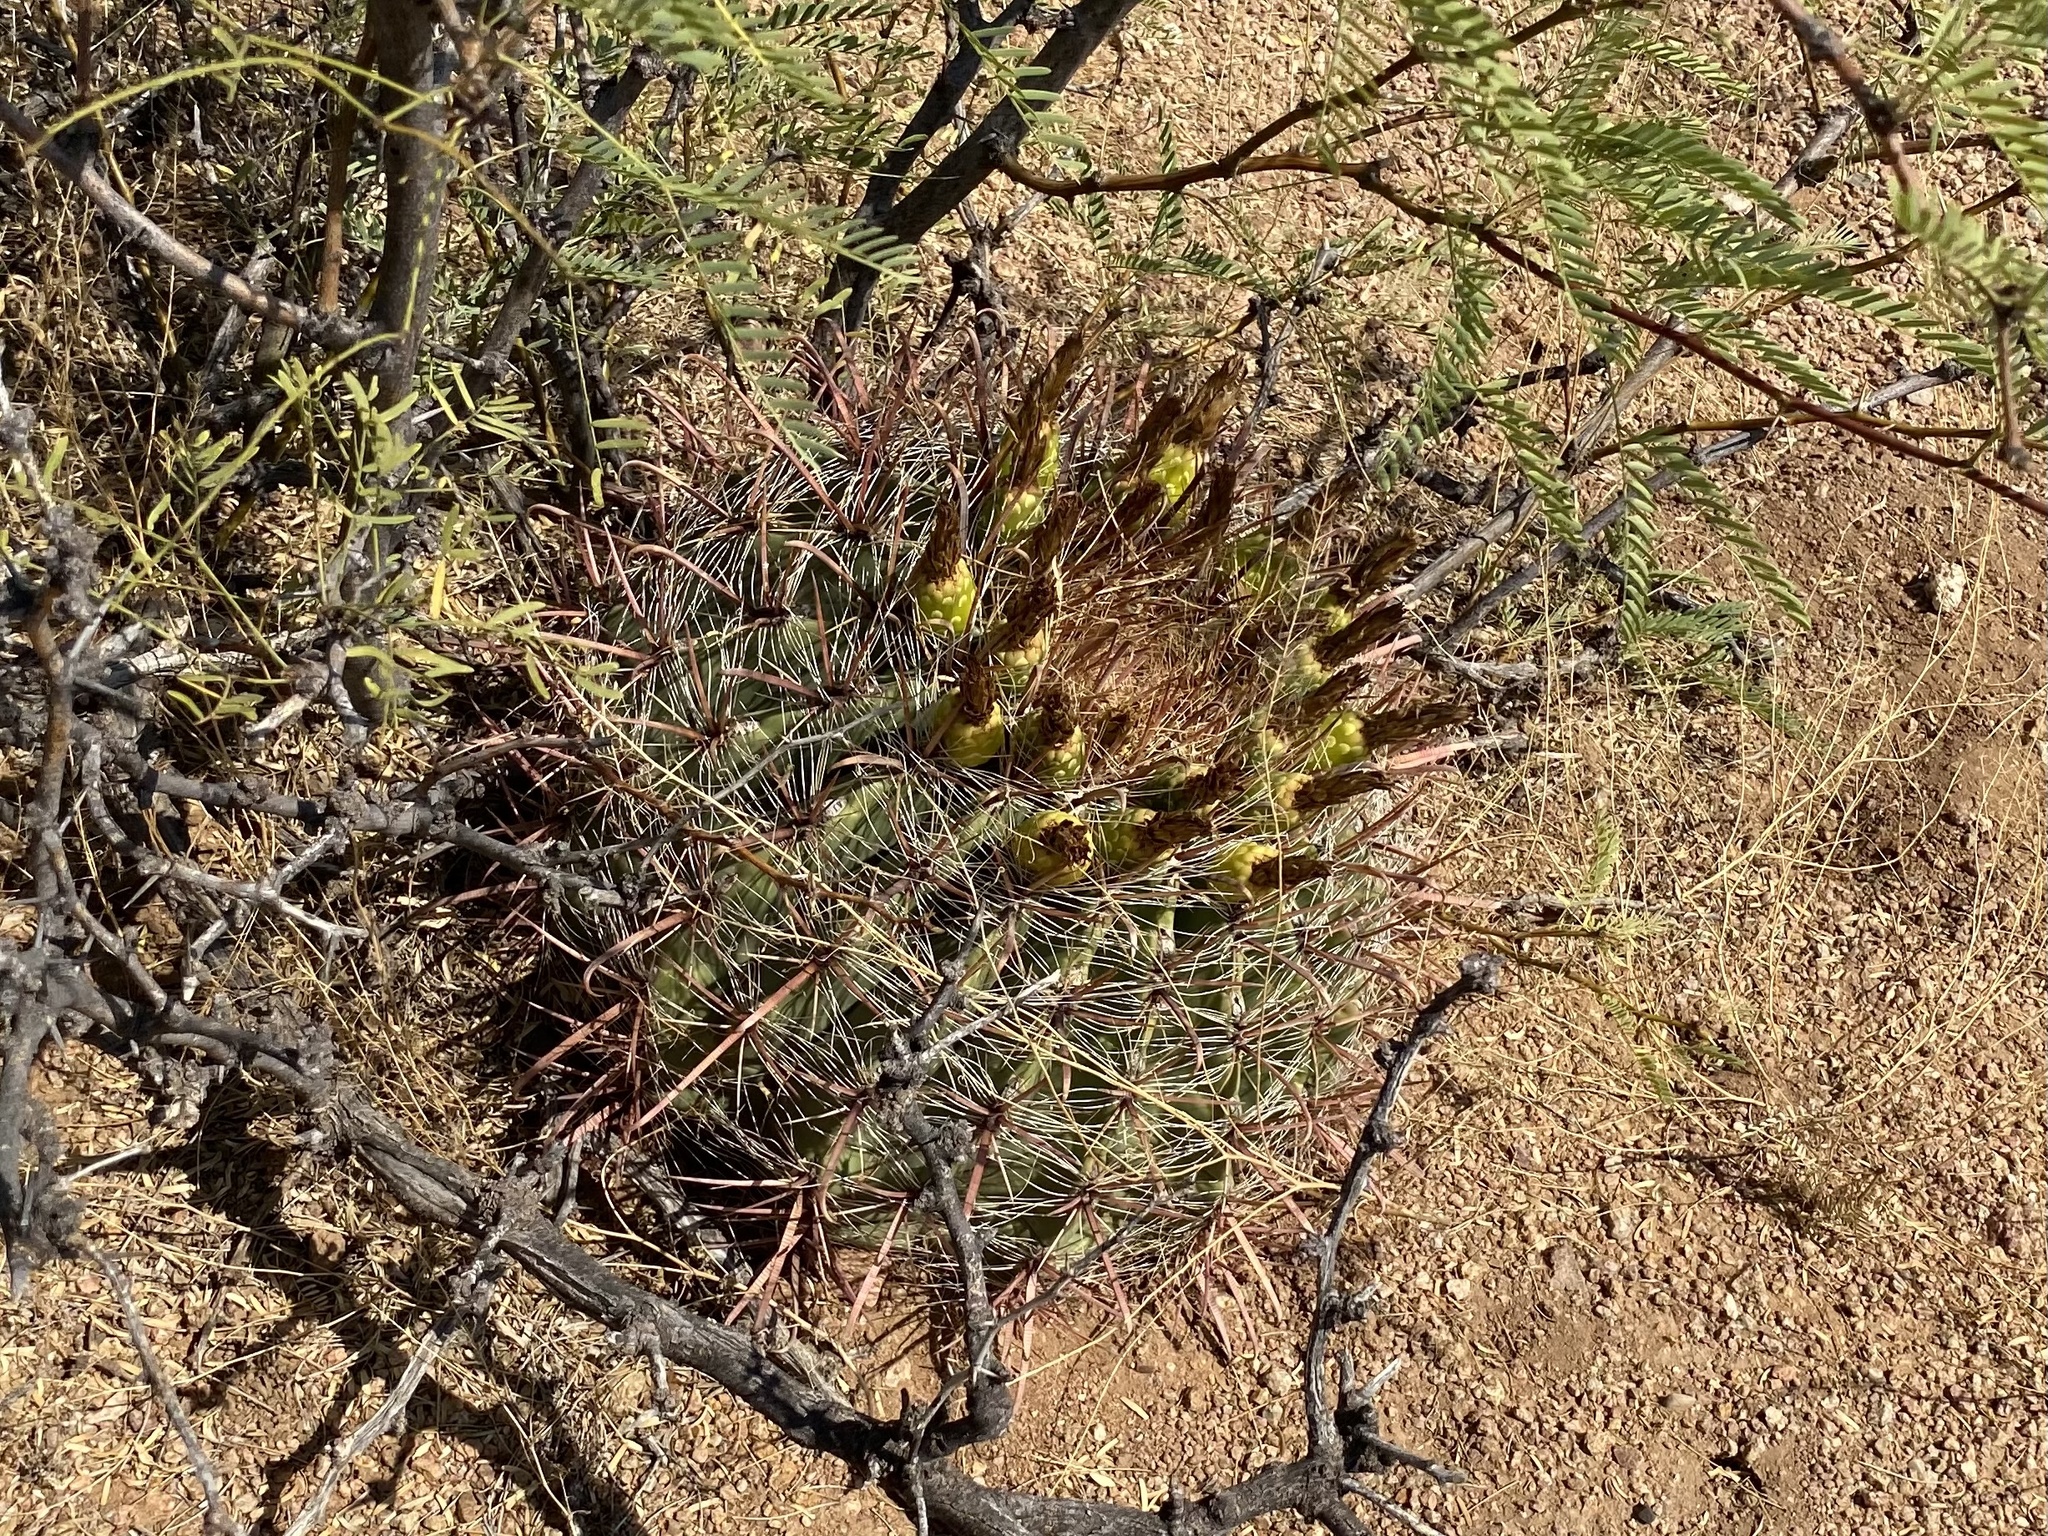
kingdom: Plantae
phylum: Tracheophyta
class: Magnoliopsida
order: Caryophyllales
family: Cactaceae
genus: Ferocactus
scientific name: Ferocactus wislizeni
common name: Candy barrel cactus
